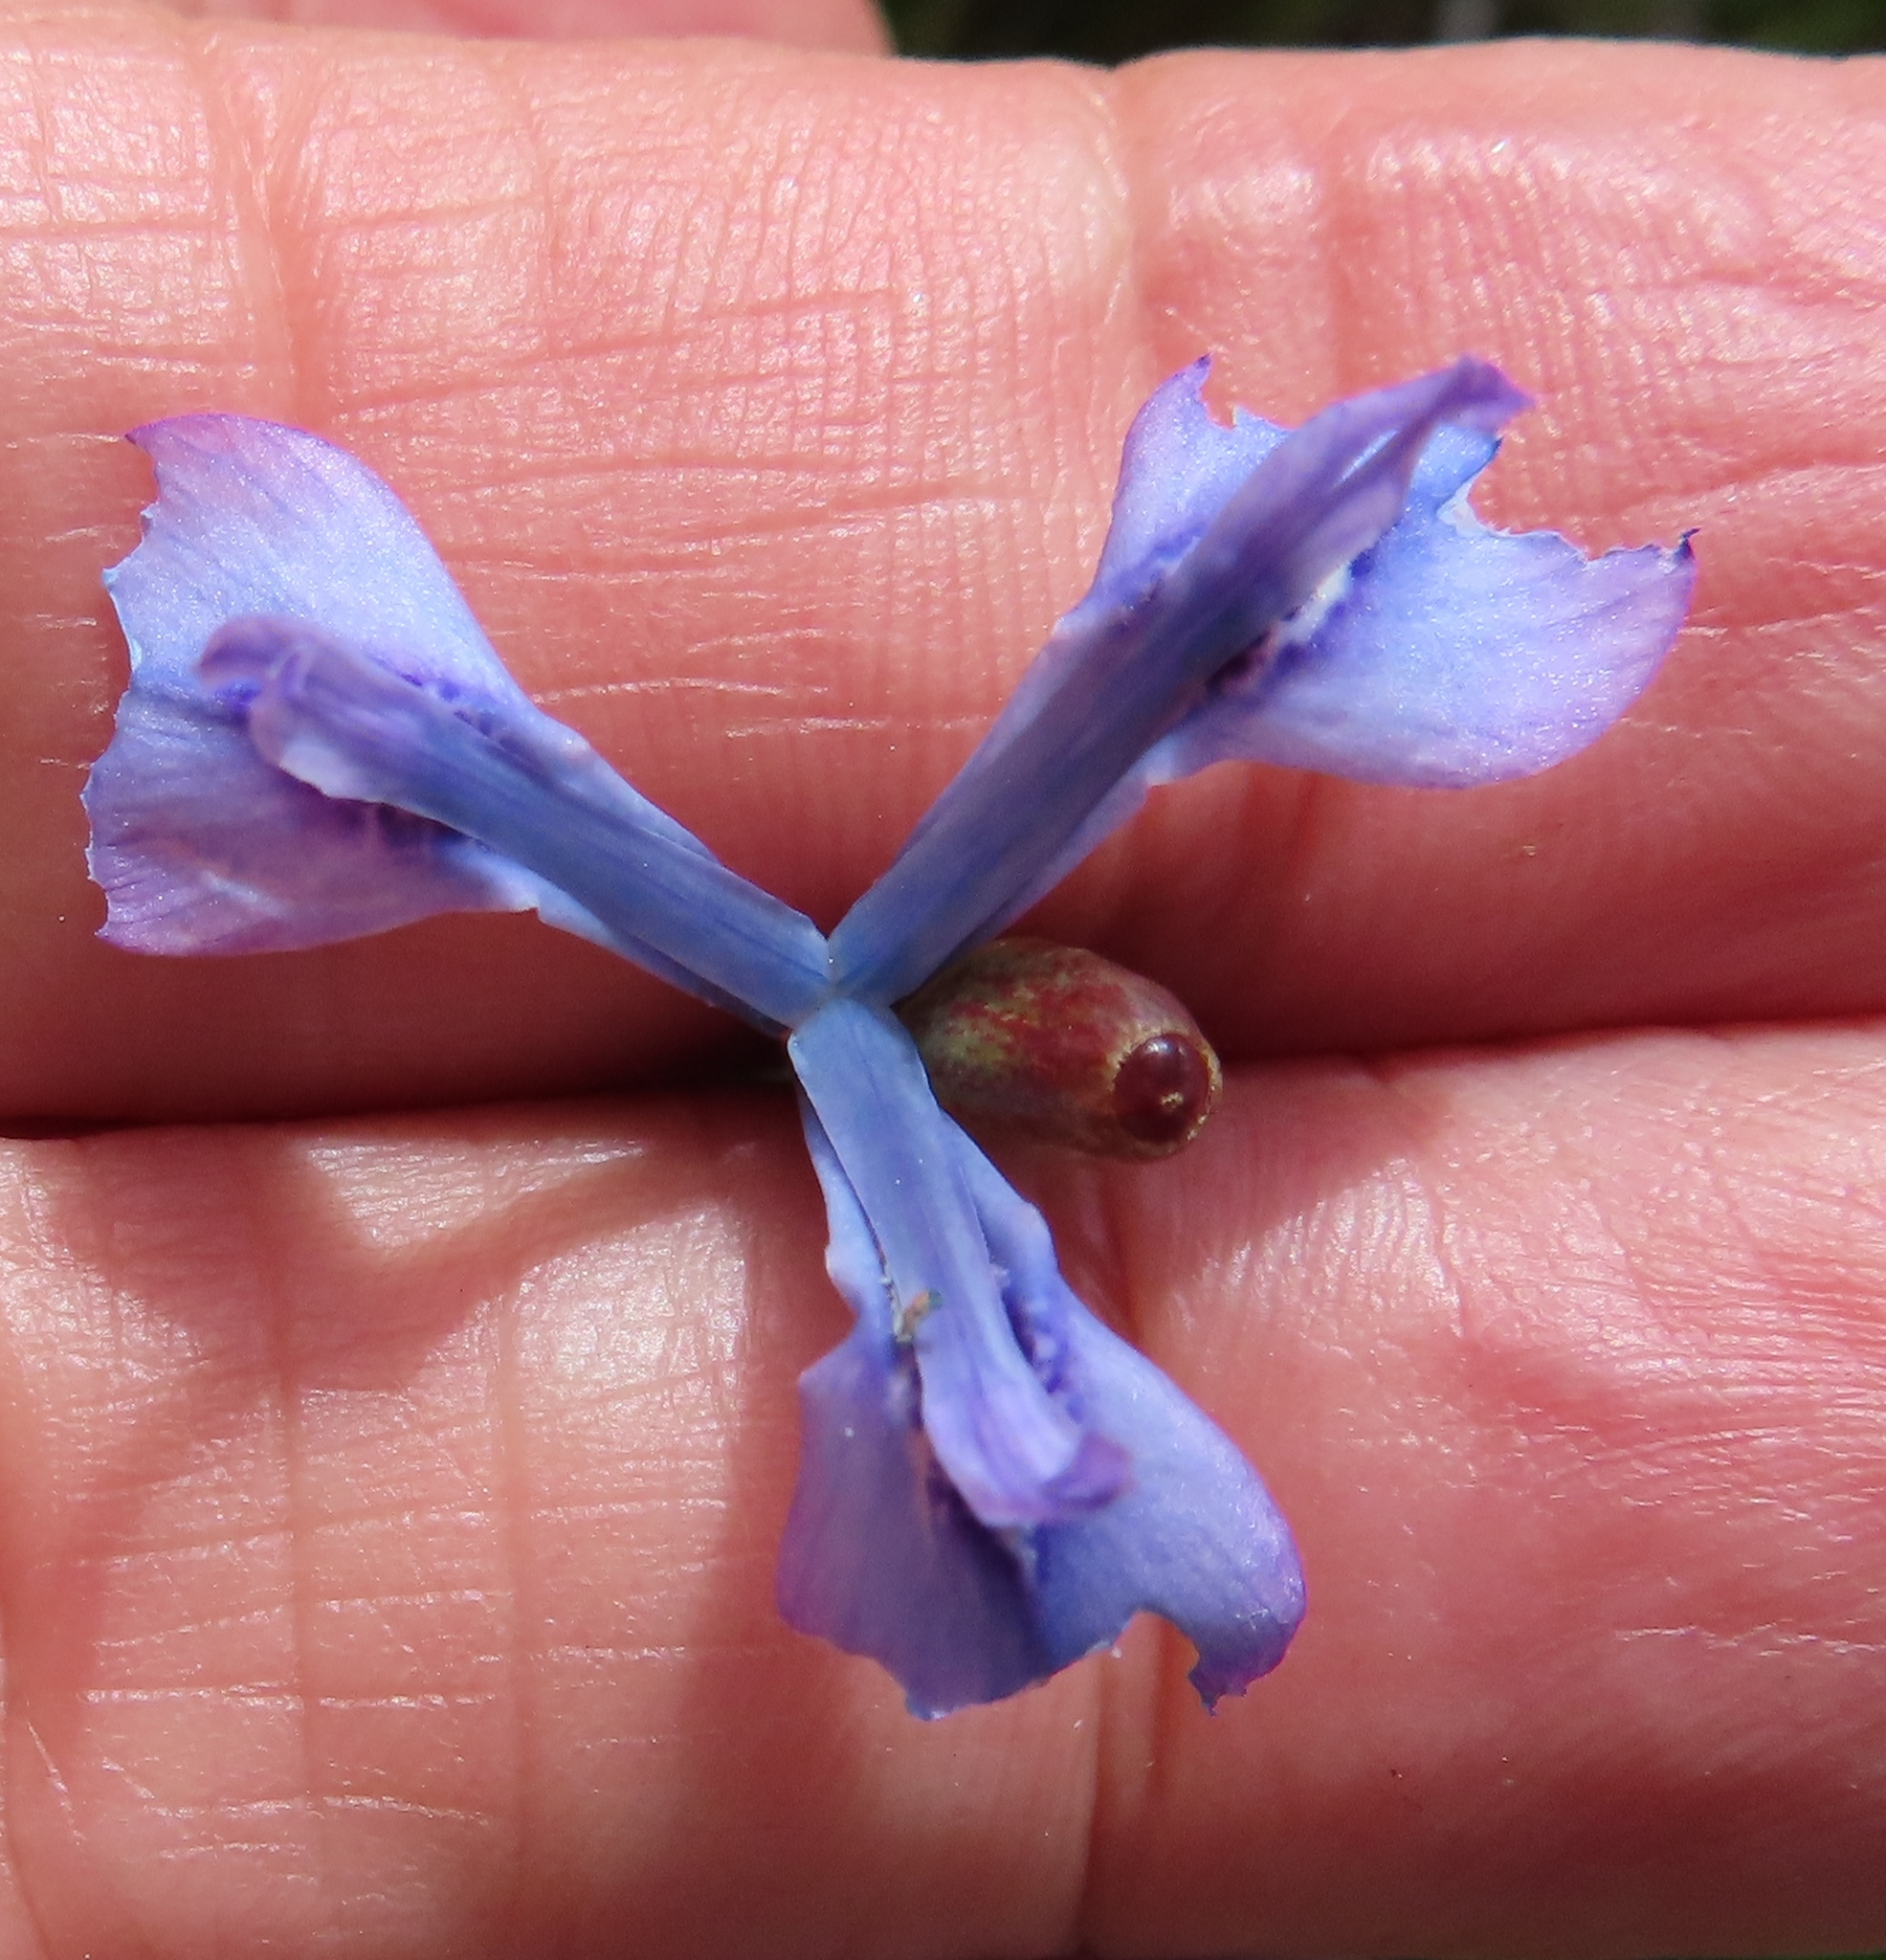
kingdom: Plantae
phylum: Tracheophyta
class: Liliopsida
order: Asparagales
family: Iridaceae
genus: Moraea
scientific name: Moraea tripetala
